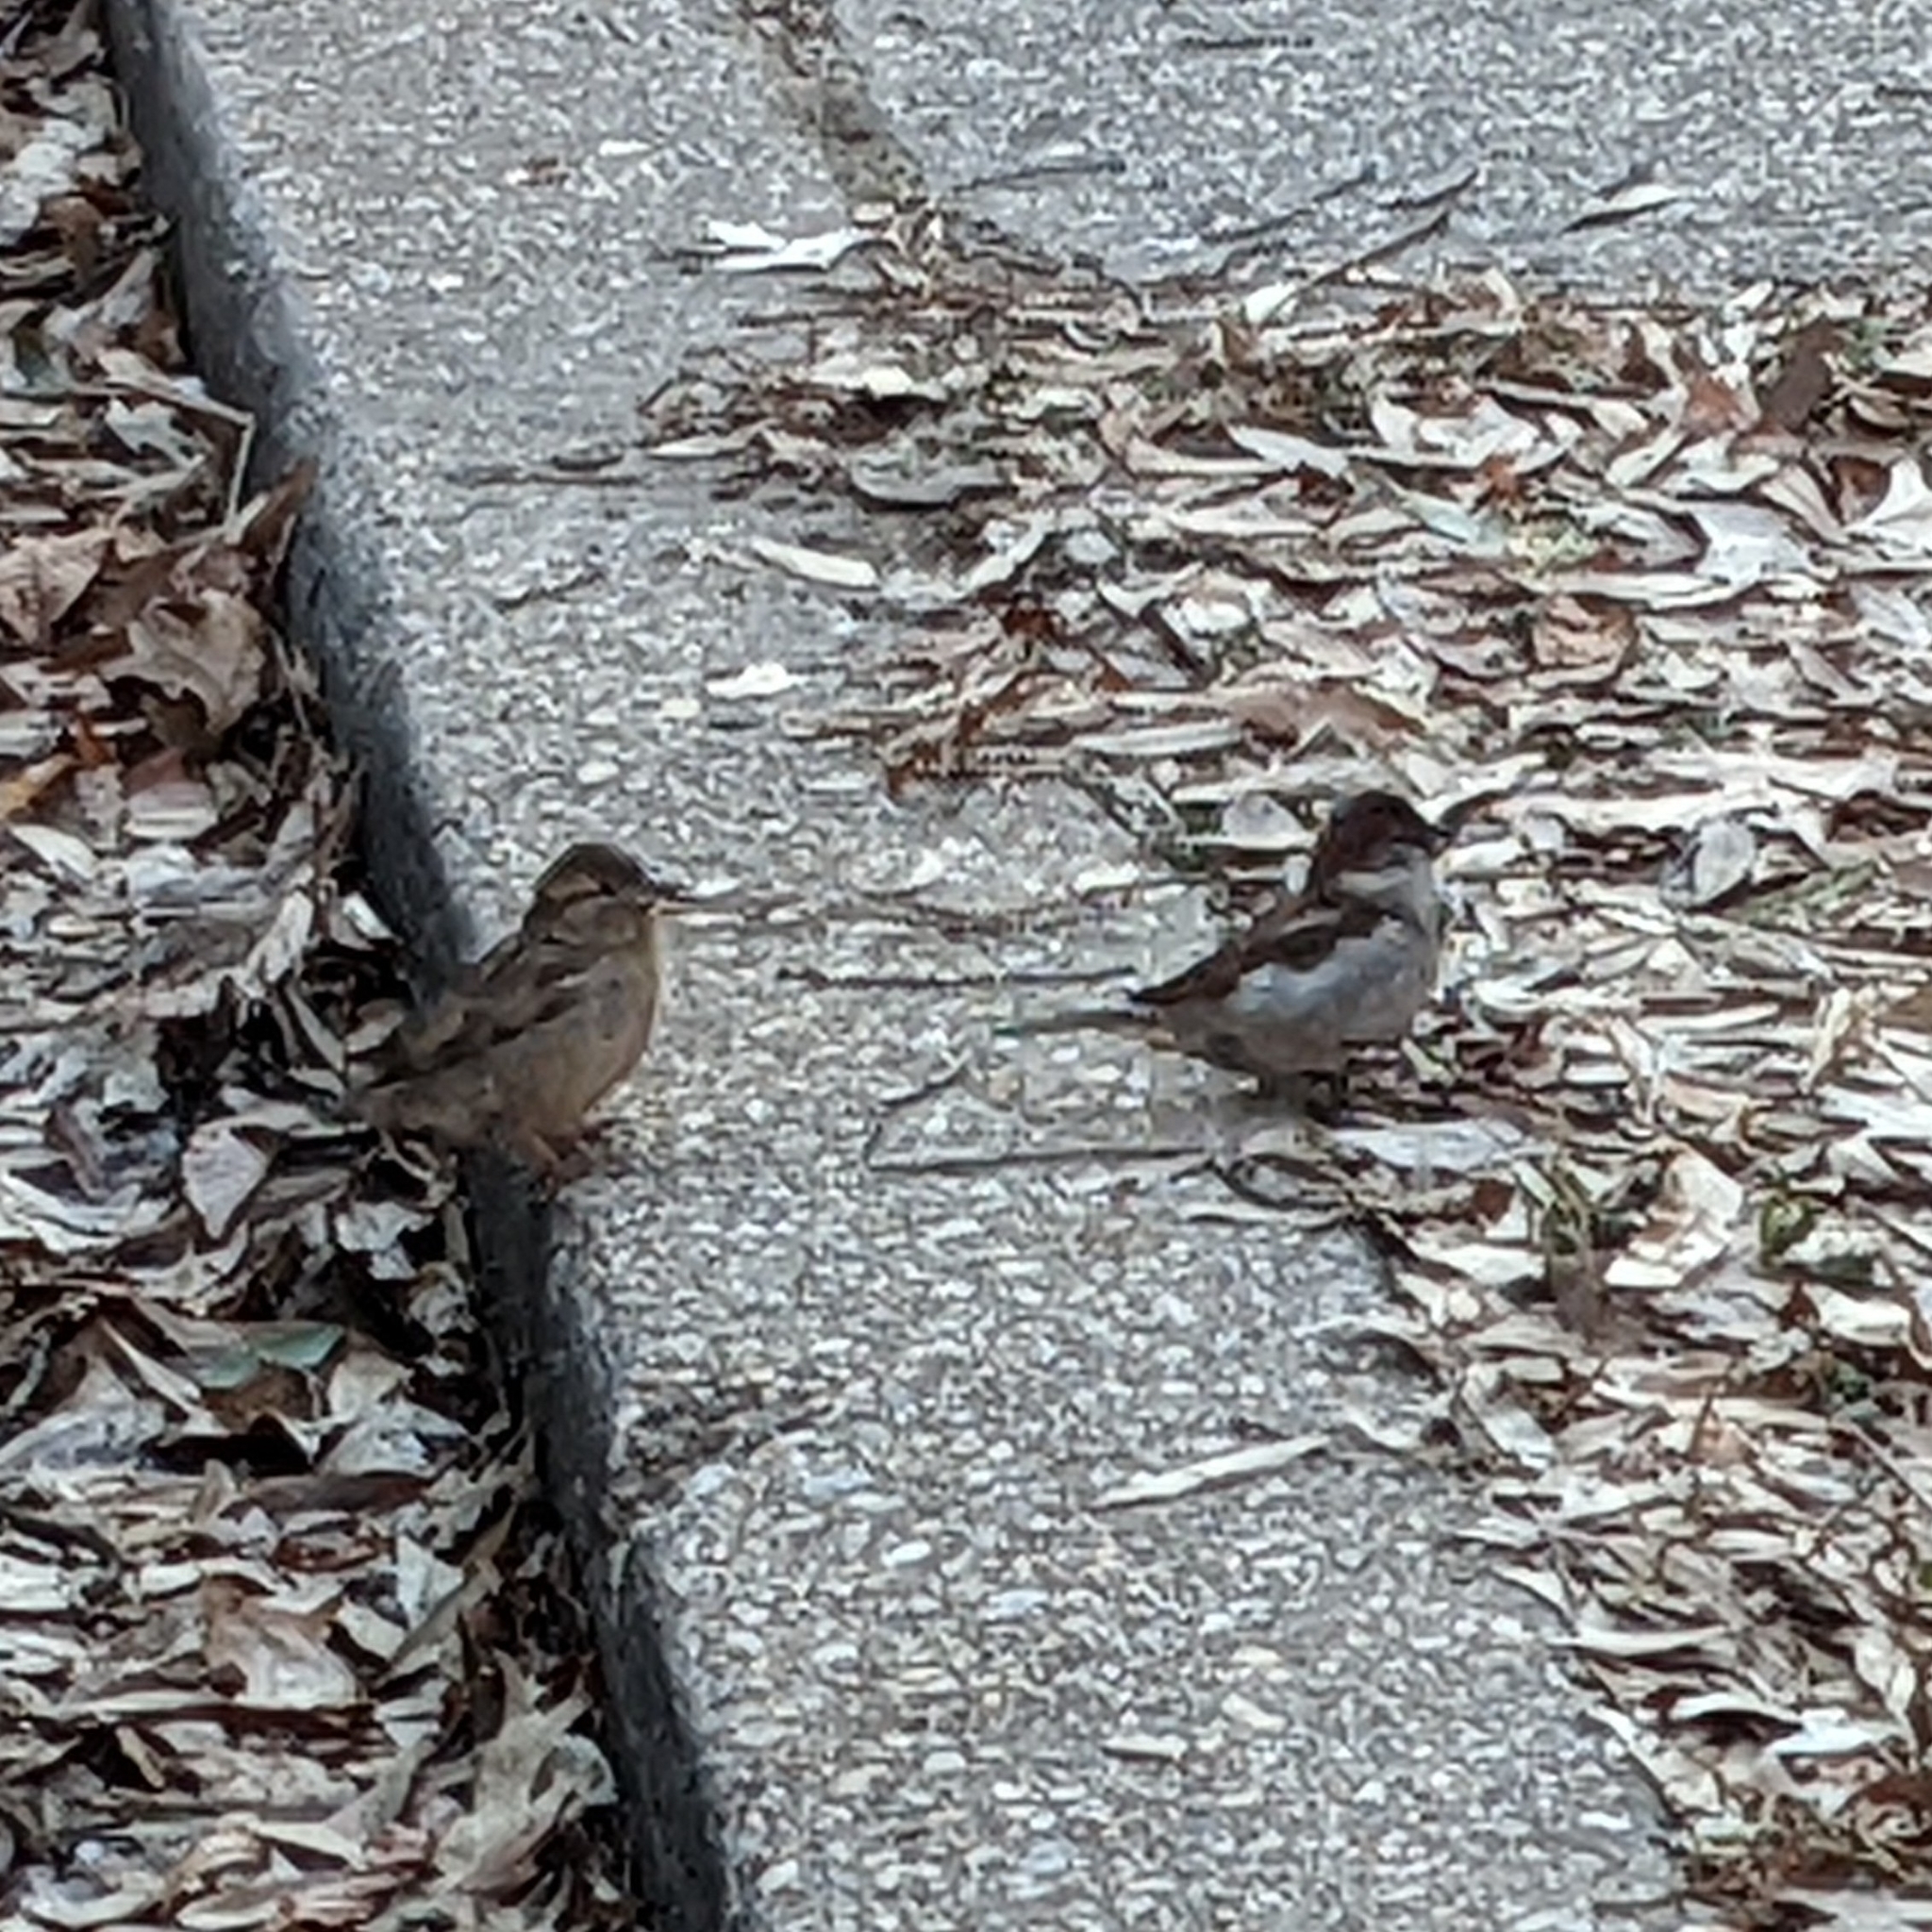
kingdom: Animalia
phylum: Chordata
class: Aves
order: Passeriformes
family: Passeridae
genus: Passer
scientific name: Passer domesticus
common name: House sparrow
